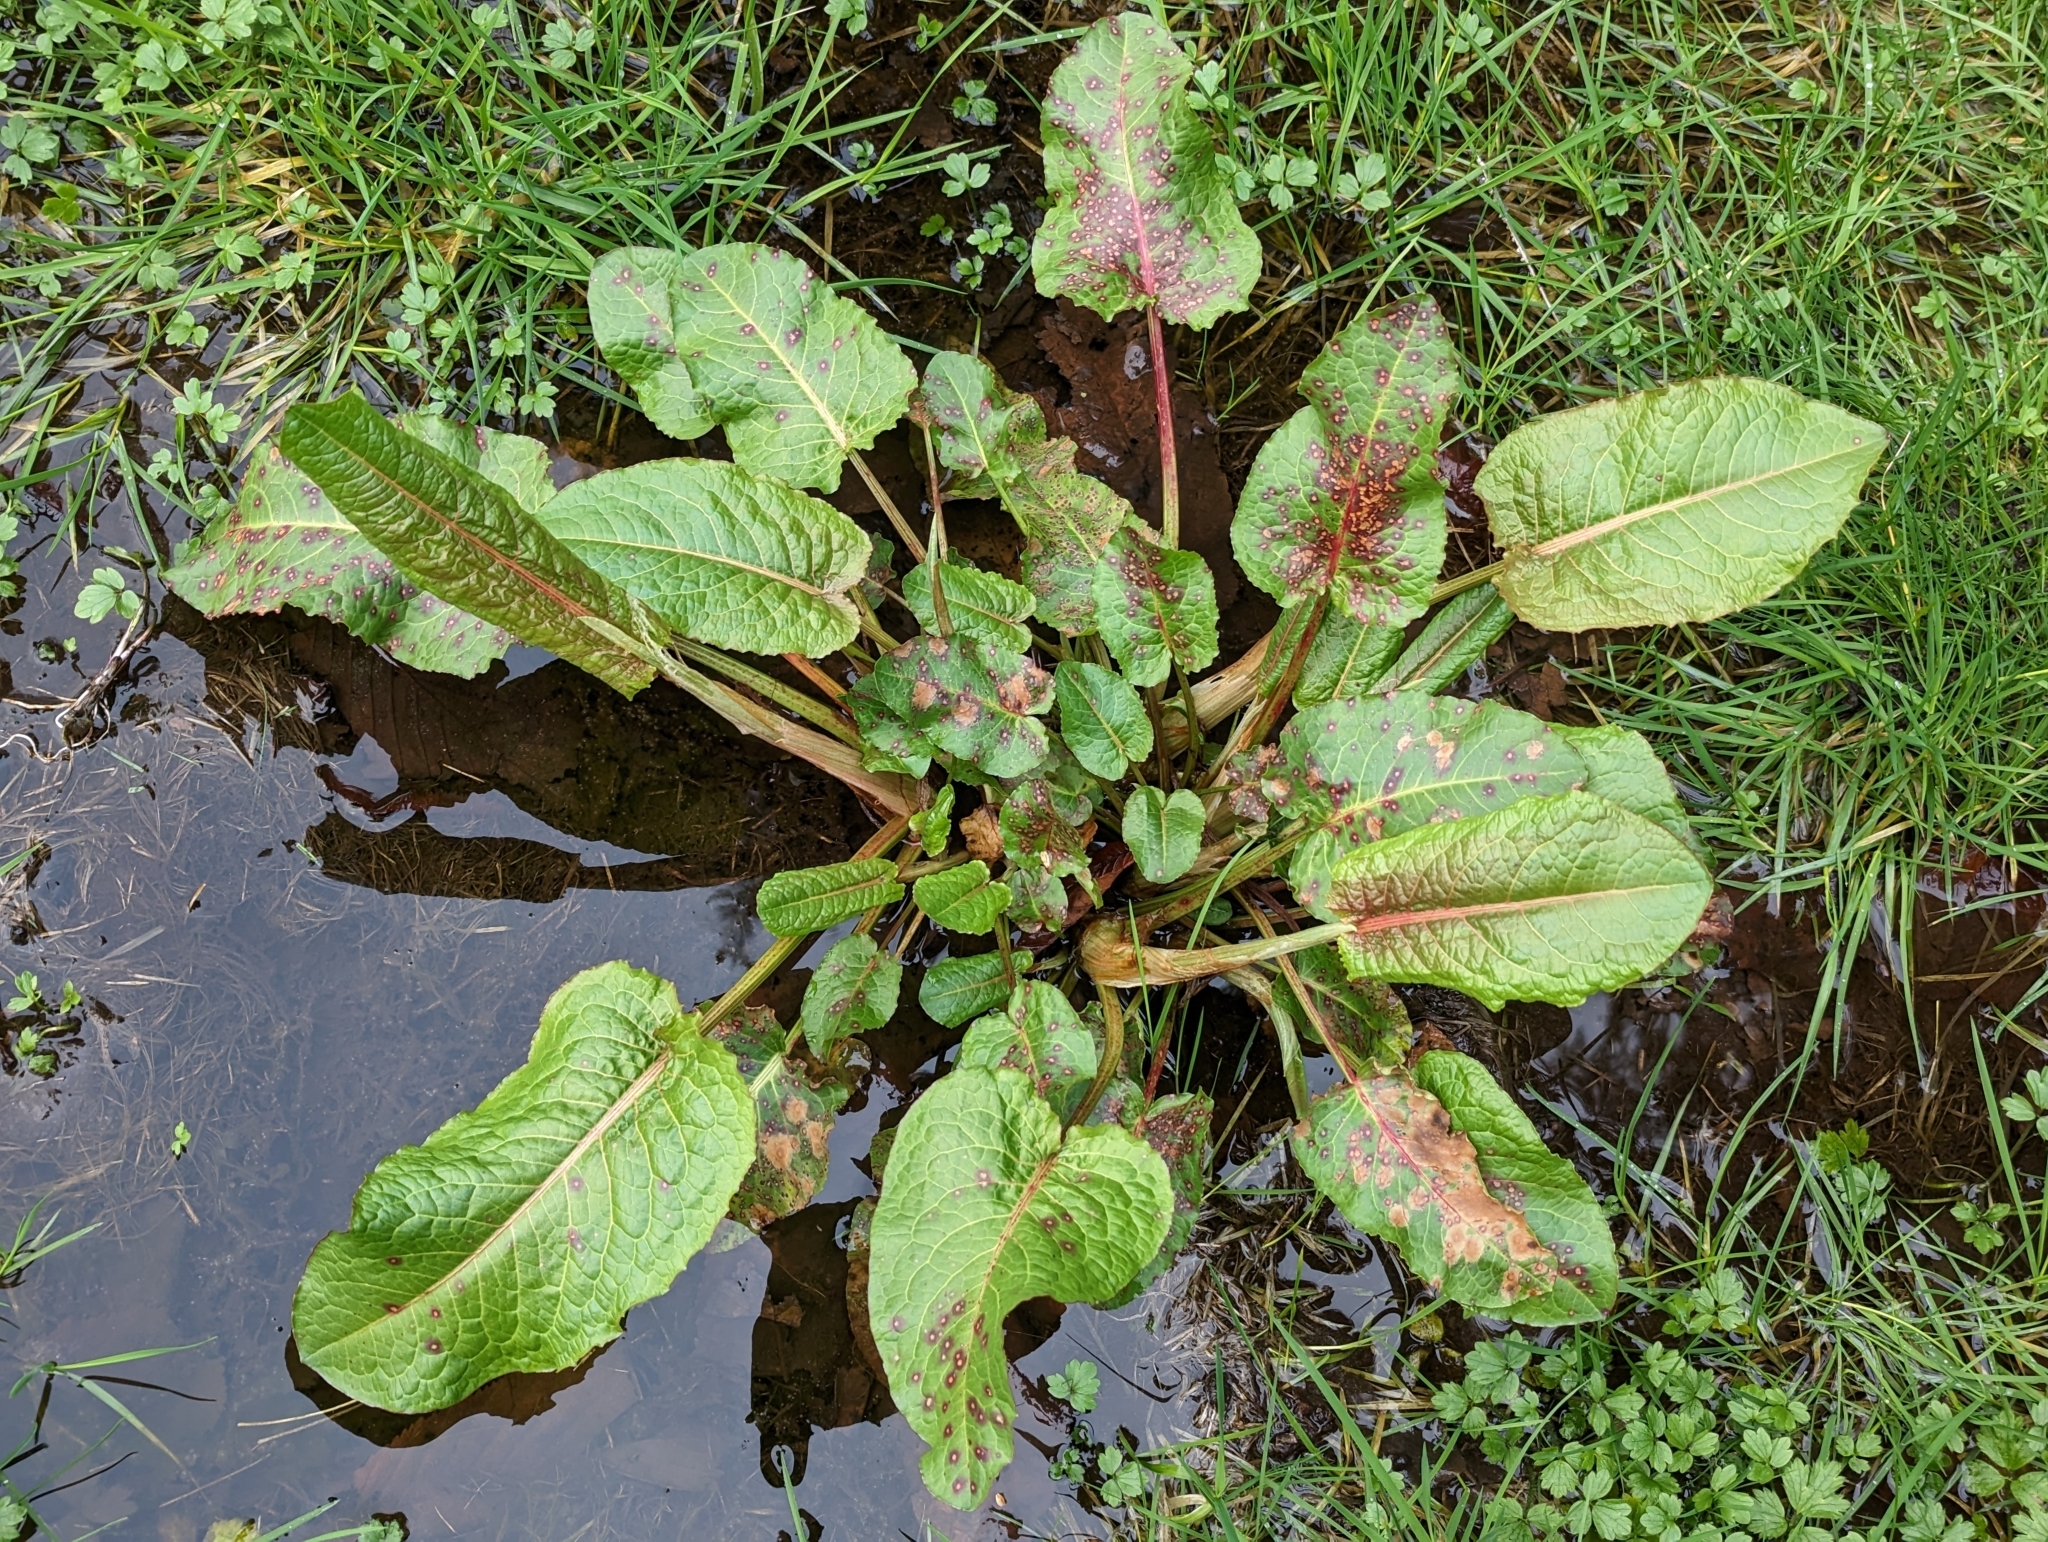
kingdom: Plantae
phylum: Tracheophyta
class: Magnoliopsida
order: Caryophyllales
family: Polygonaceae
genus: Rumex
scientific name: Rumex obtusifolius
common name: Bitter dock
